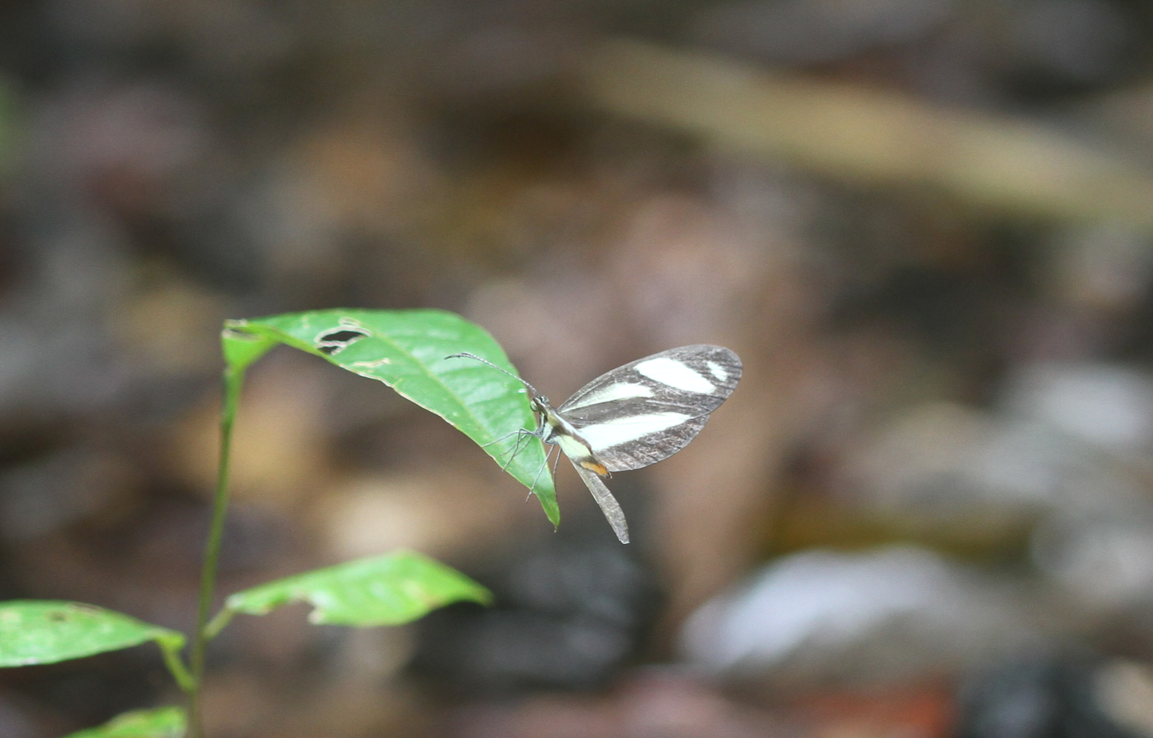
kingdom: Animalia
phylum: Arthropoda
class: Insecta
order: Lepidoptera
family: Pieridae
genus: Moschoneura
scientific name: Moschoneura pinthous
